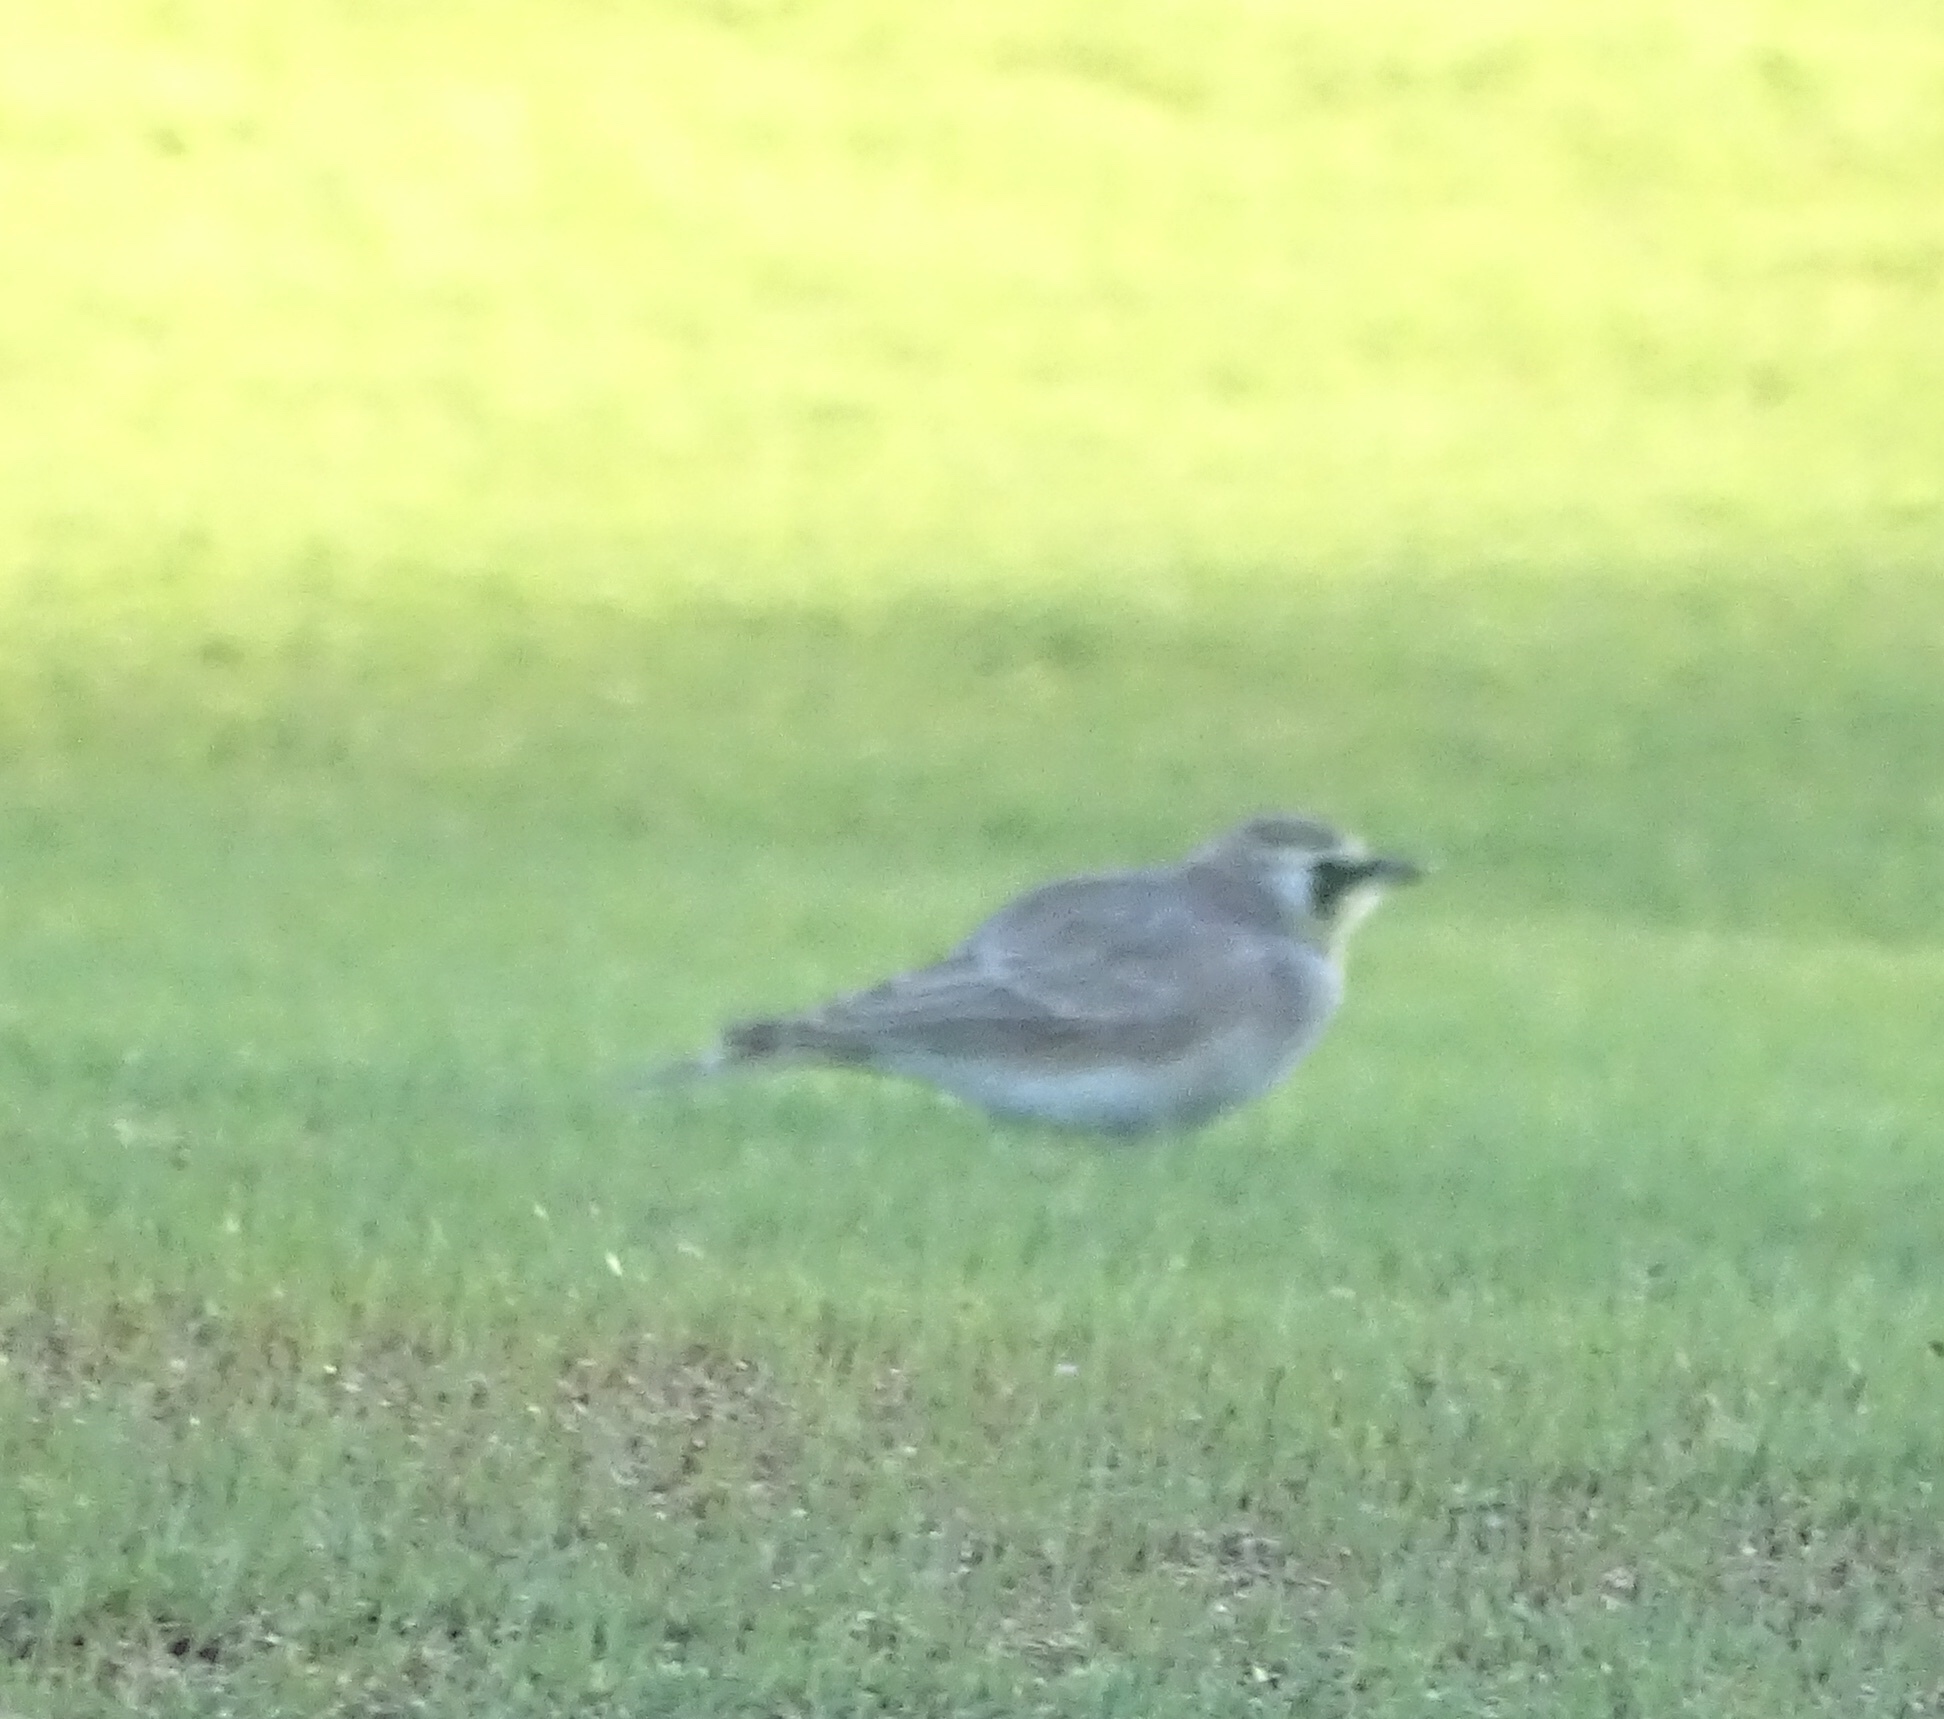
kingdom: Animalia
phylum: Chordata
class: Aves
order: Passeriformes
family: Alaudidae
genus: Eremophila
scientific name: Eremophila alpestris
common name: Horned lark
